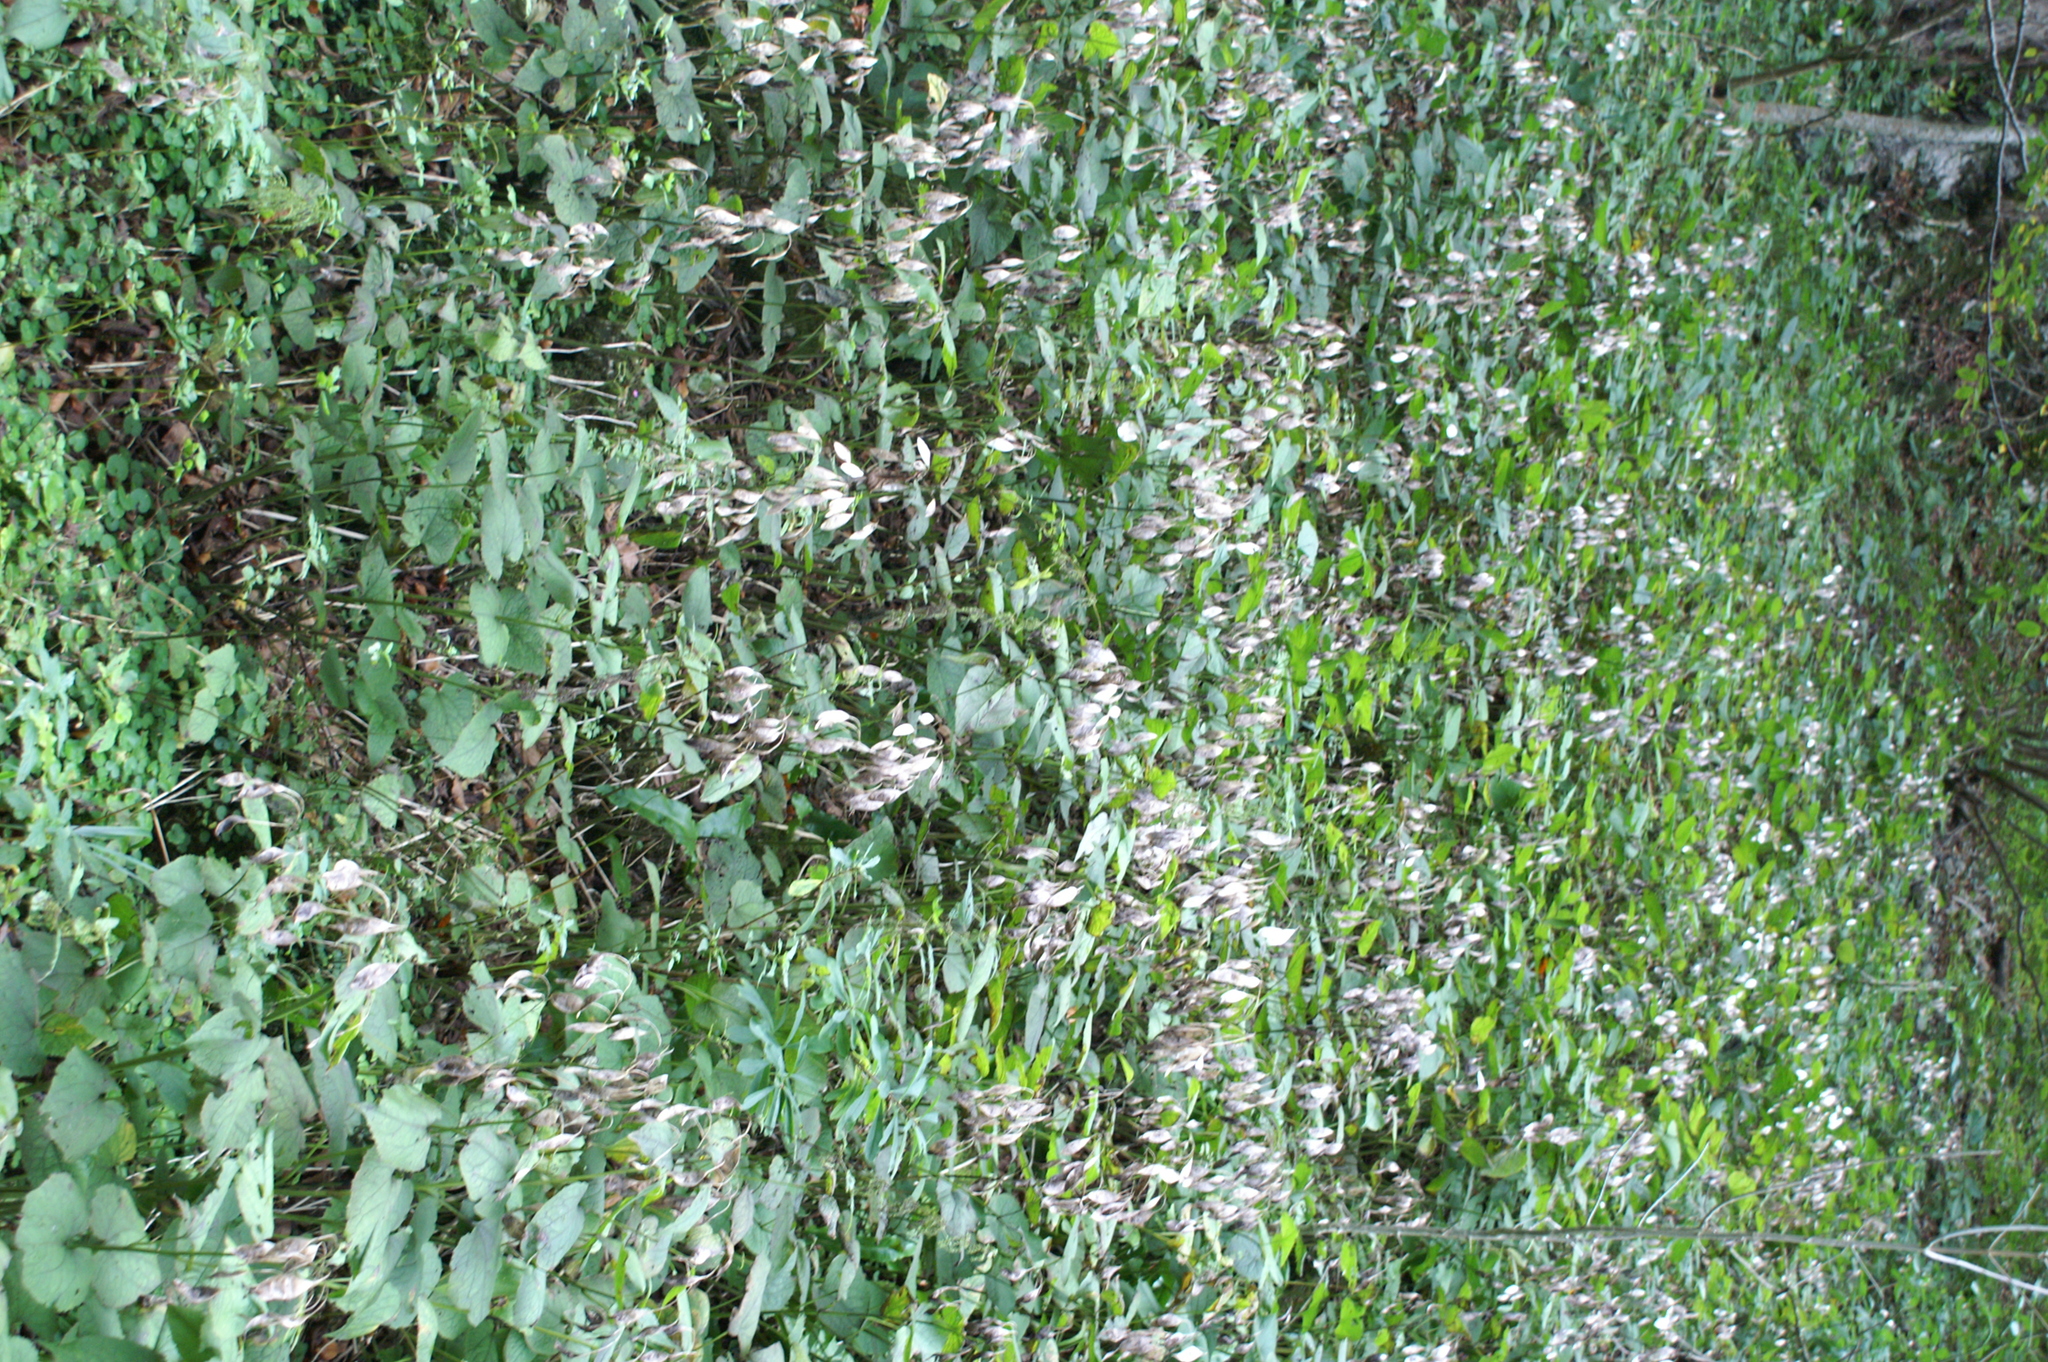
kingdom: Plantae
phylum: Tracheophyta
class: Magnoliopsida
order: Brassicales
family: Brassicaceae
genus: Lunaria
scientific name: Lunaria rediviva
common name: Perennial honesty
